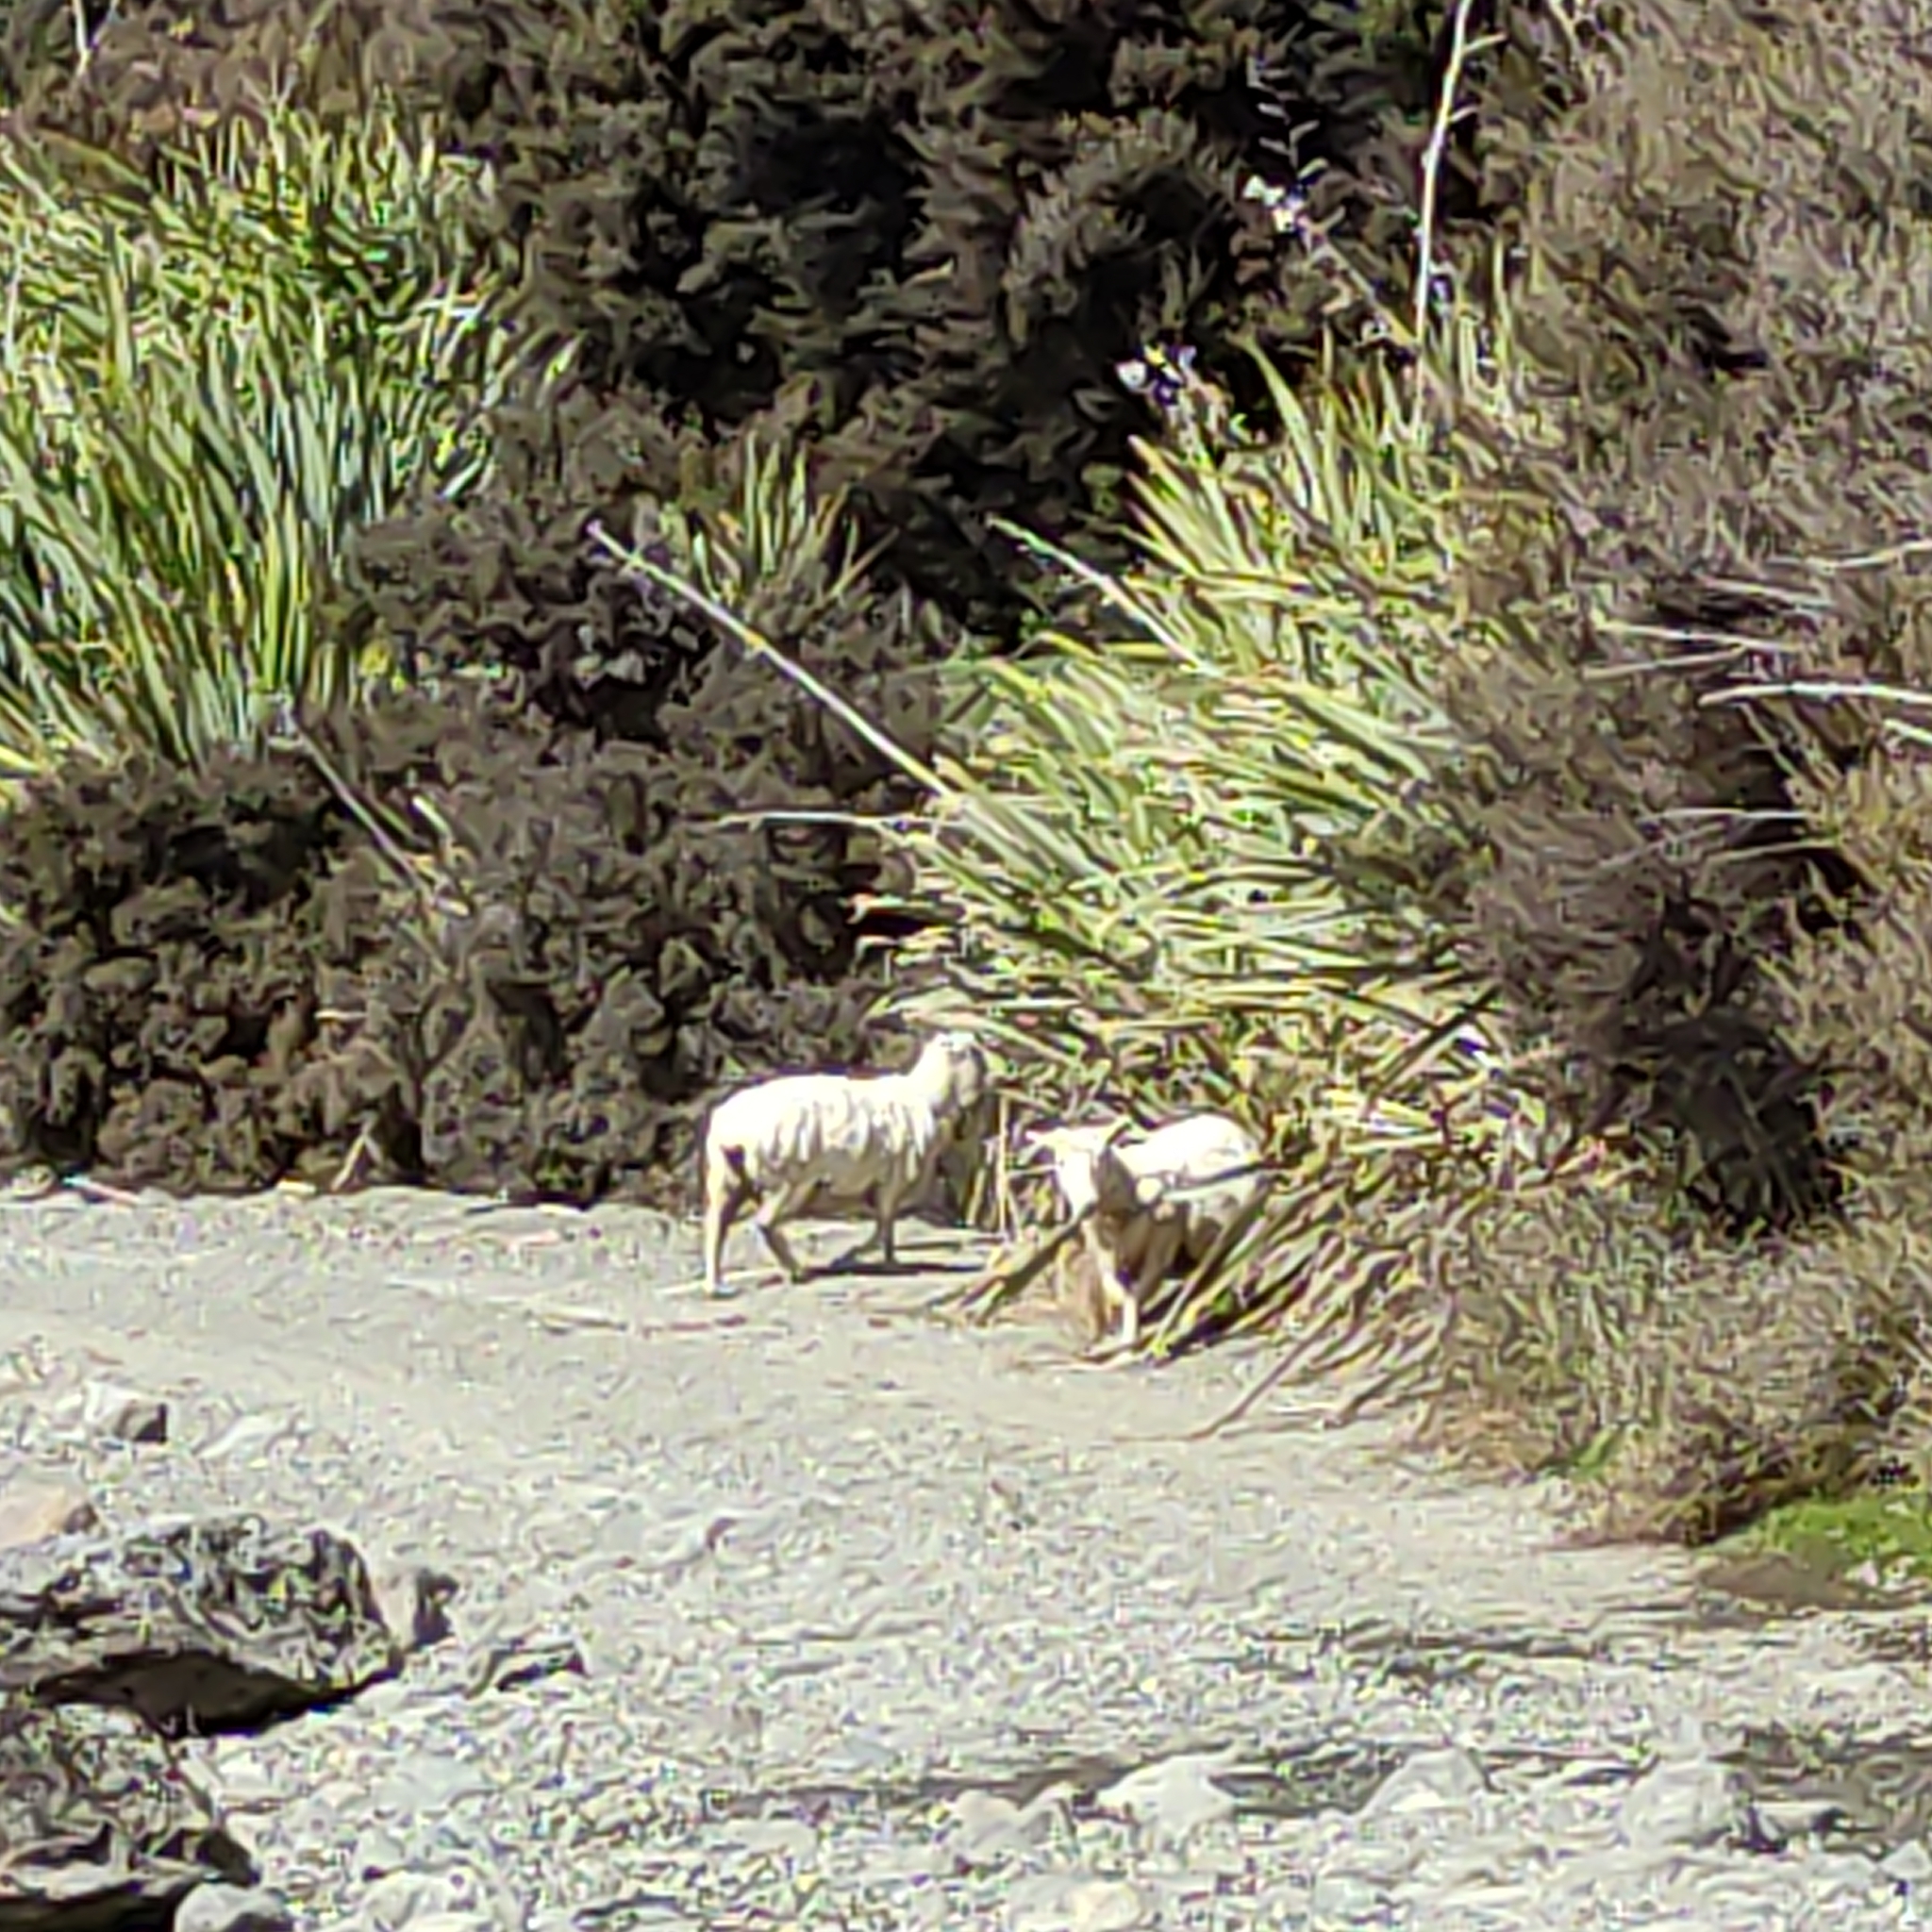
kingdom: Animalia
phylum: Chordata
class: Mammalia
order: Artiodactyla
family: Bovidae
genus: Ovis
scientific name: Ovis aries
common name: Domestic sheep
